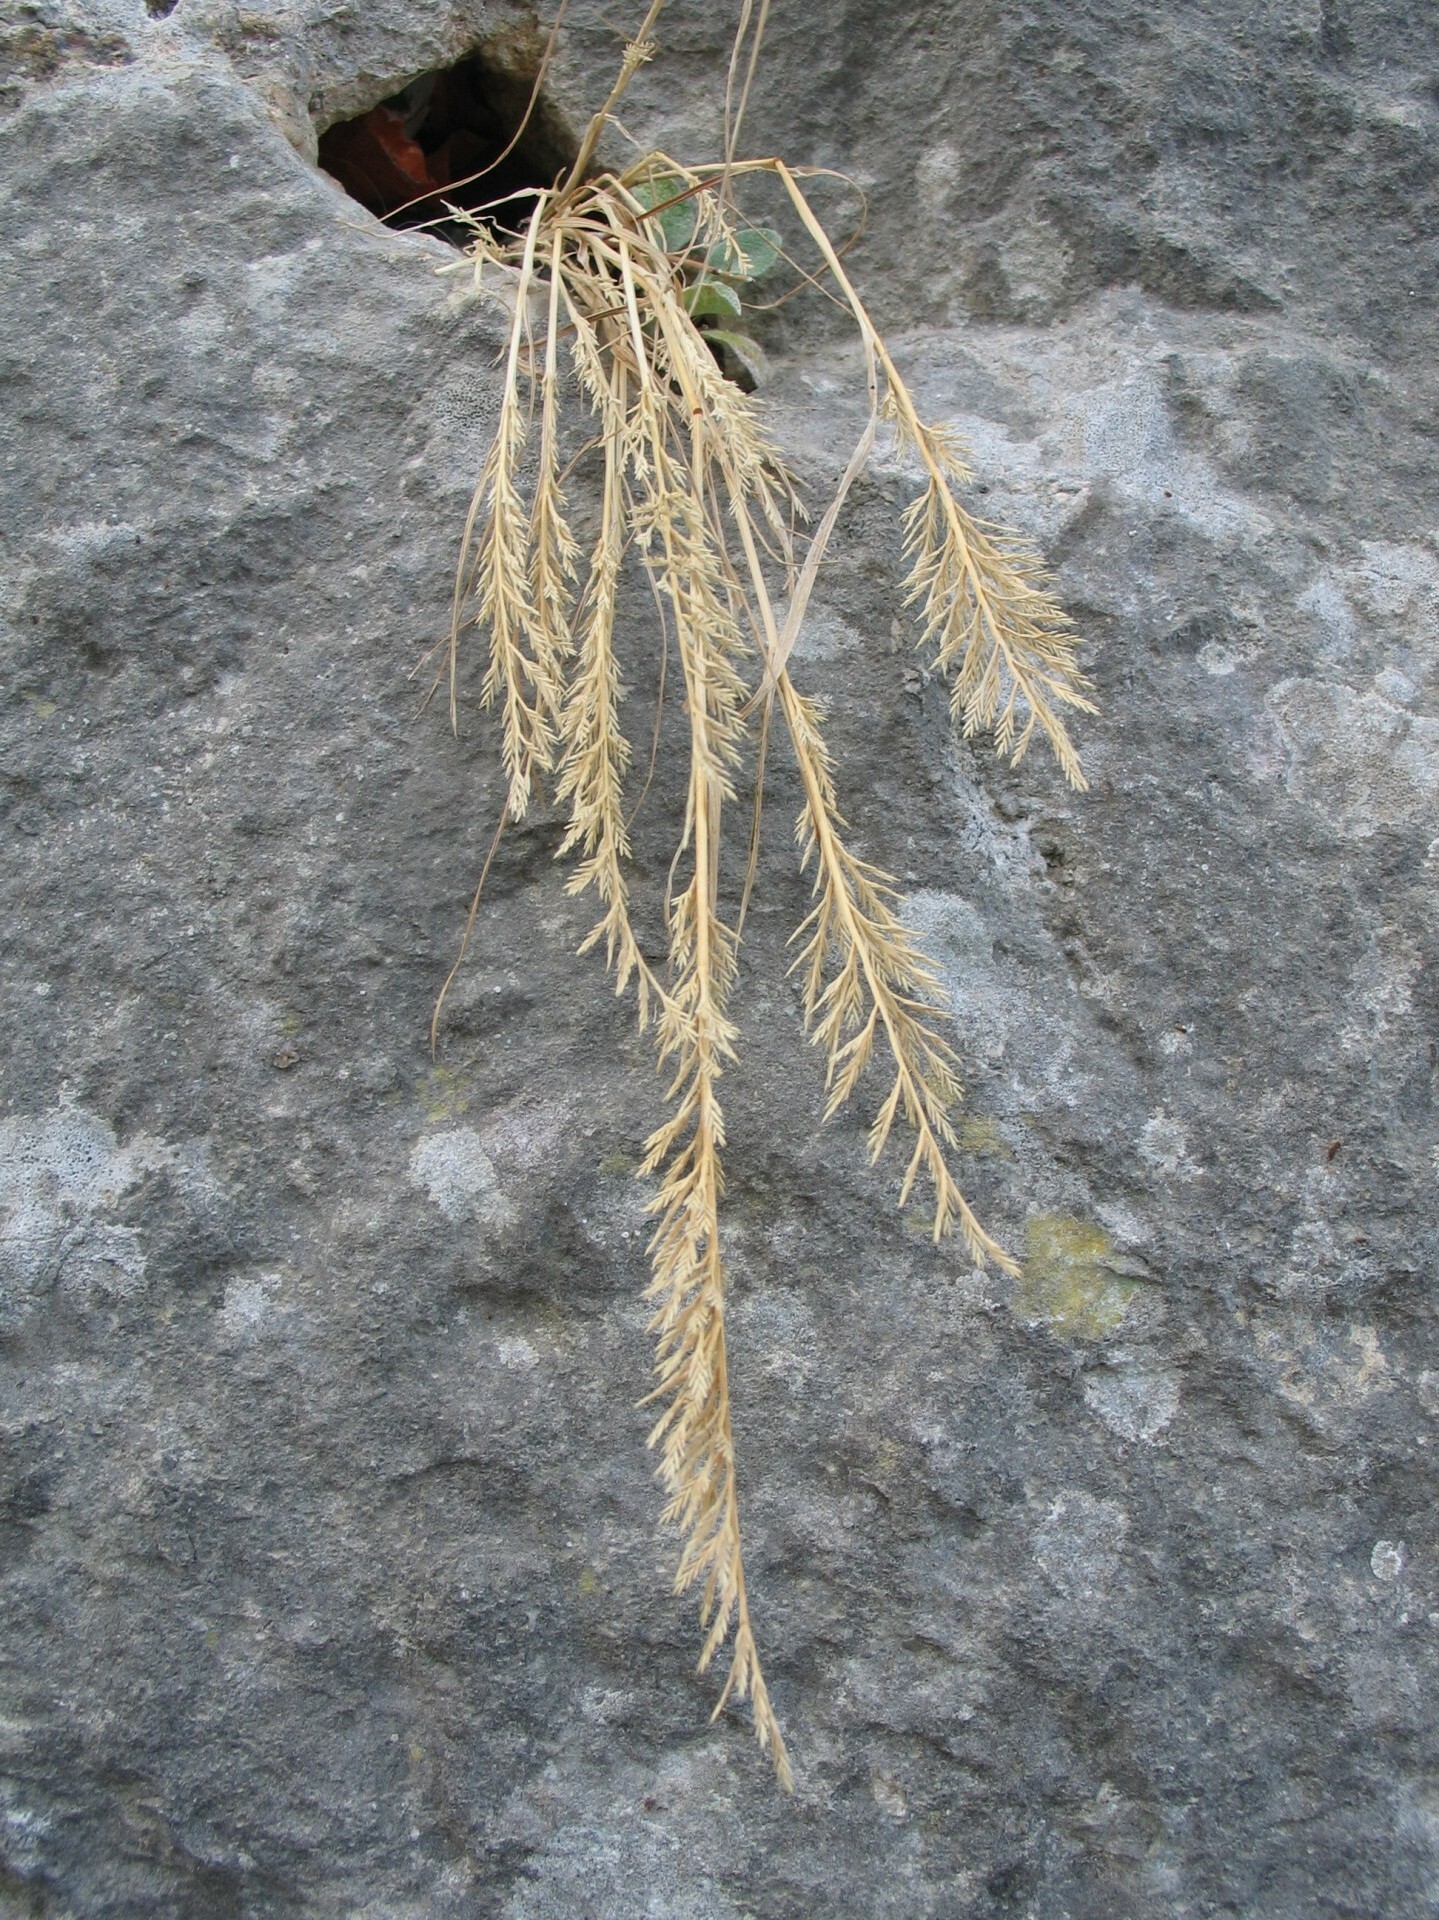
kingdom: Plantae
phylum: Tracheophyta
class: Liliopsida
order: Poales
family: Poaceae
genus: Catapodium
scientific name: Catapodium rigidum
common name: Fern-grass
